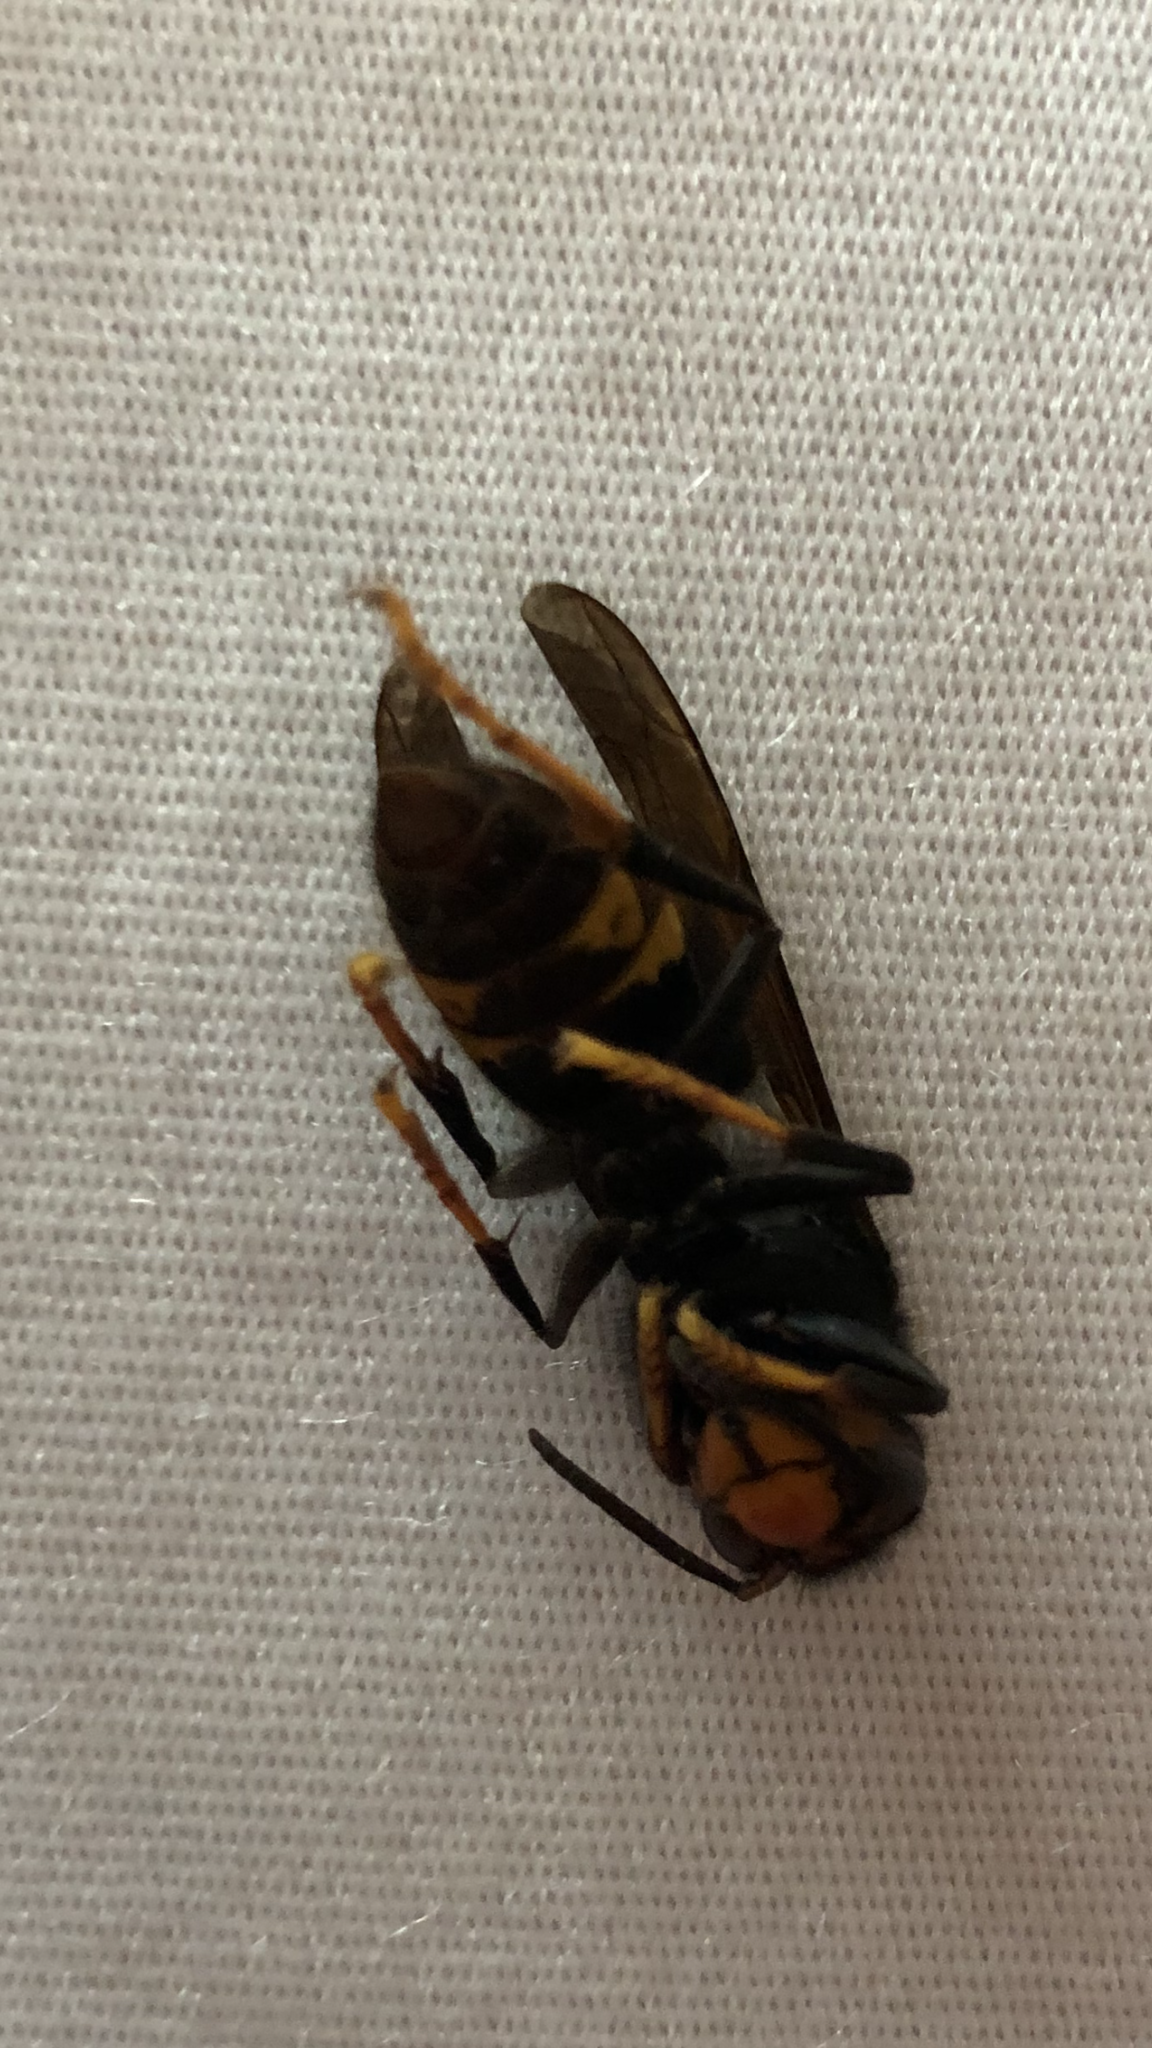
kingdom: Animalia
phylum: Arthropoda
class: Insecta
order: Hymenoptera
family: Vespidae
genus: Vespa
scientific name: Vespa velutina
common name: Asian hornet
